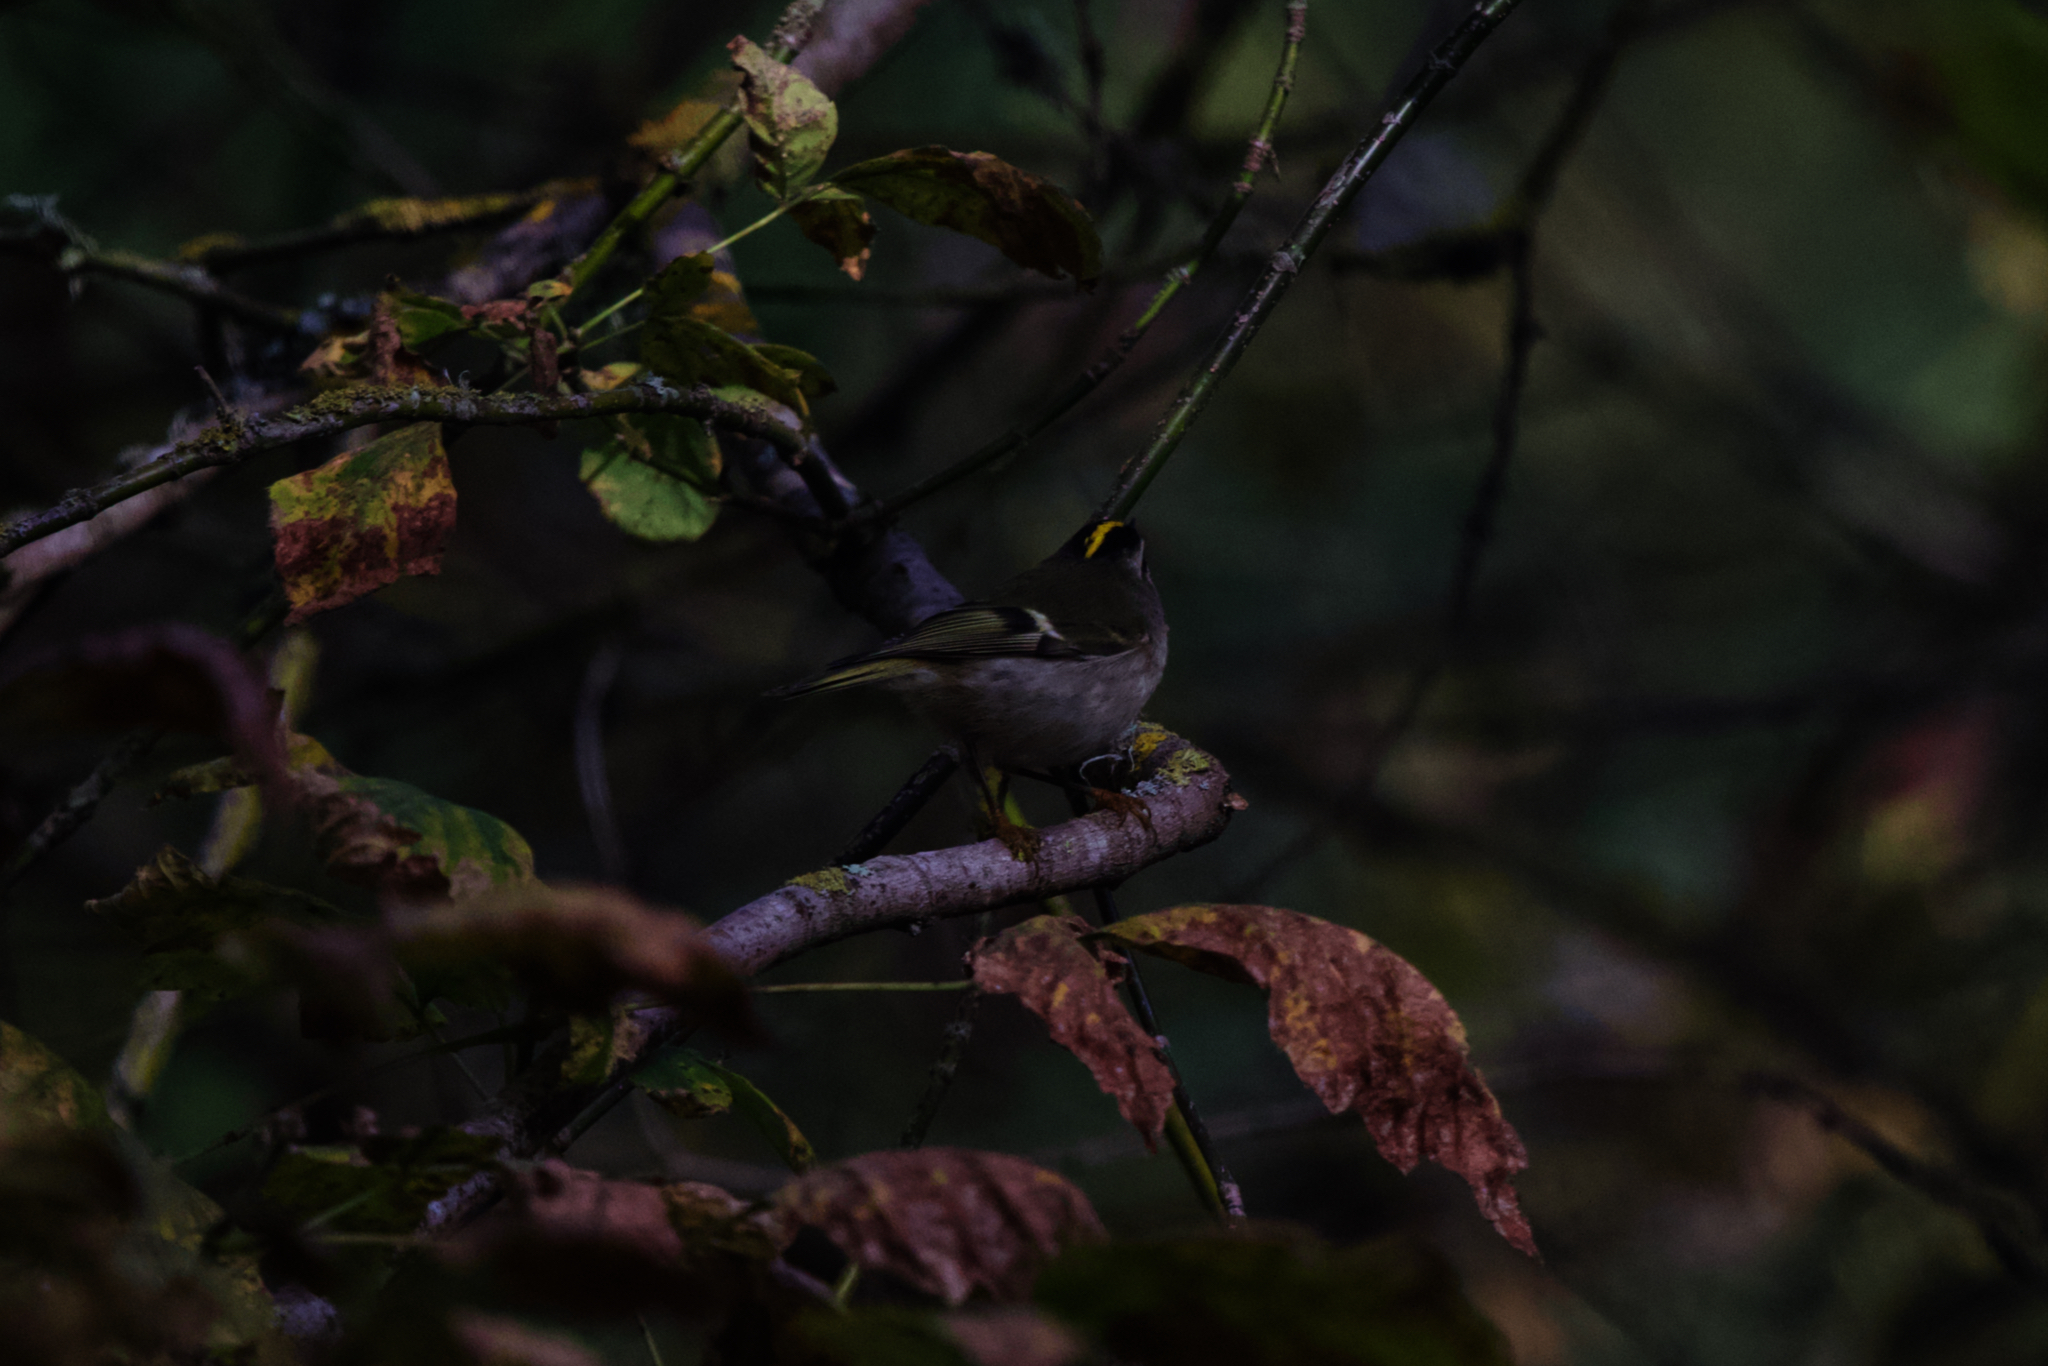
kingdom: Animalia
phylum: Chordata
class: Aves
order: Passeriformes
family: Regulidae
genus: Regulus
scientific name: Regulus satrapa
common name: Golden-crowned kinglet
